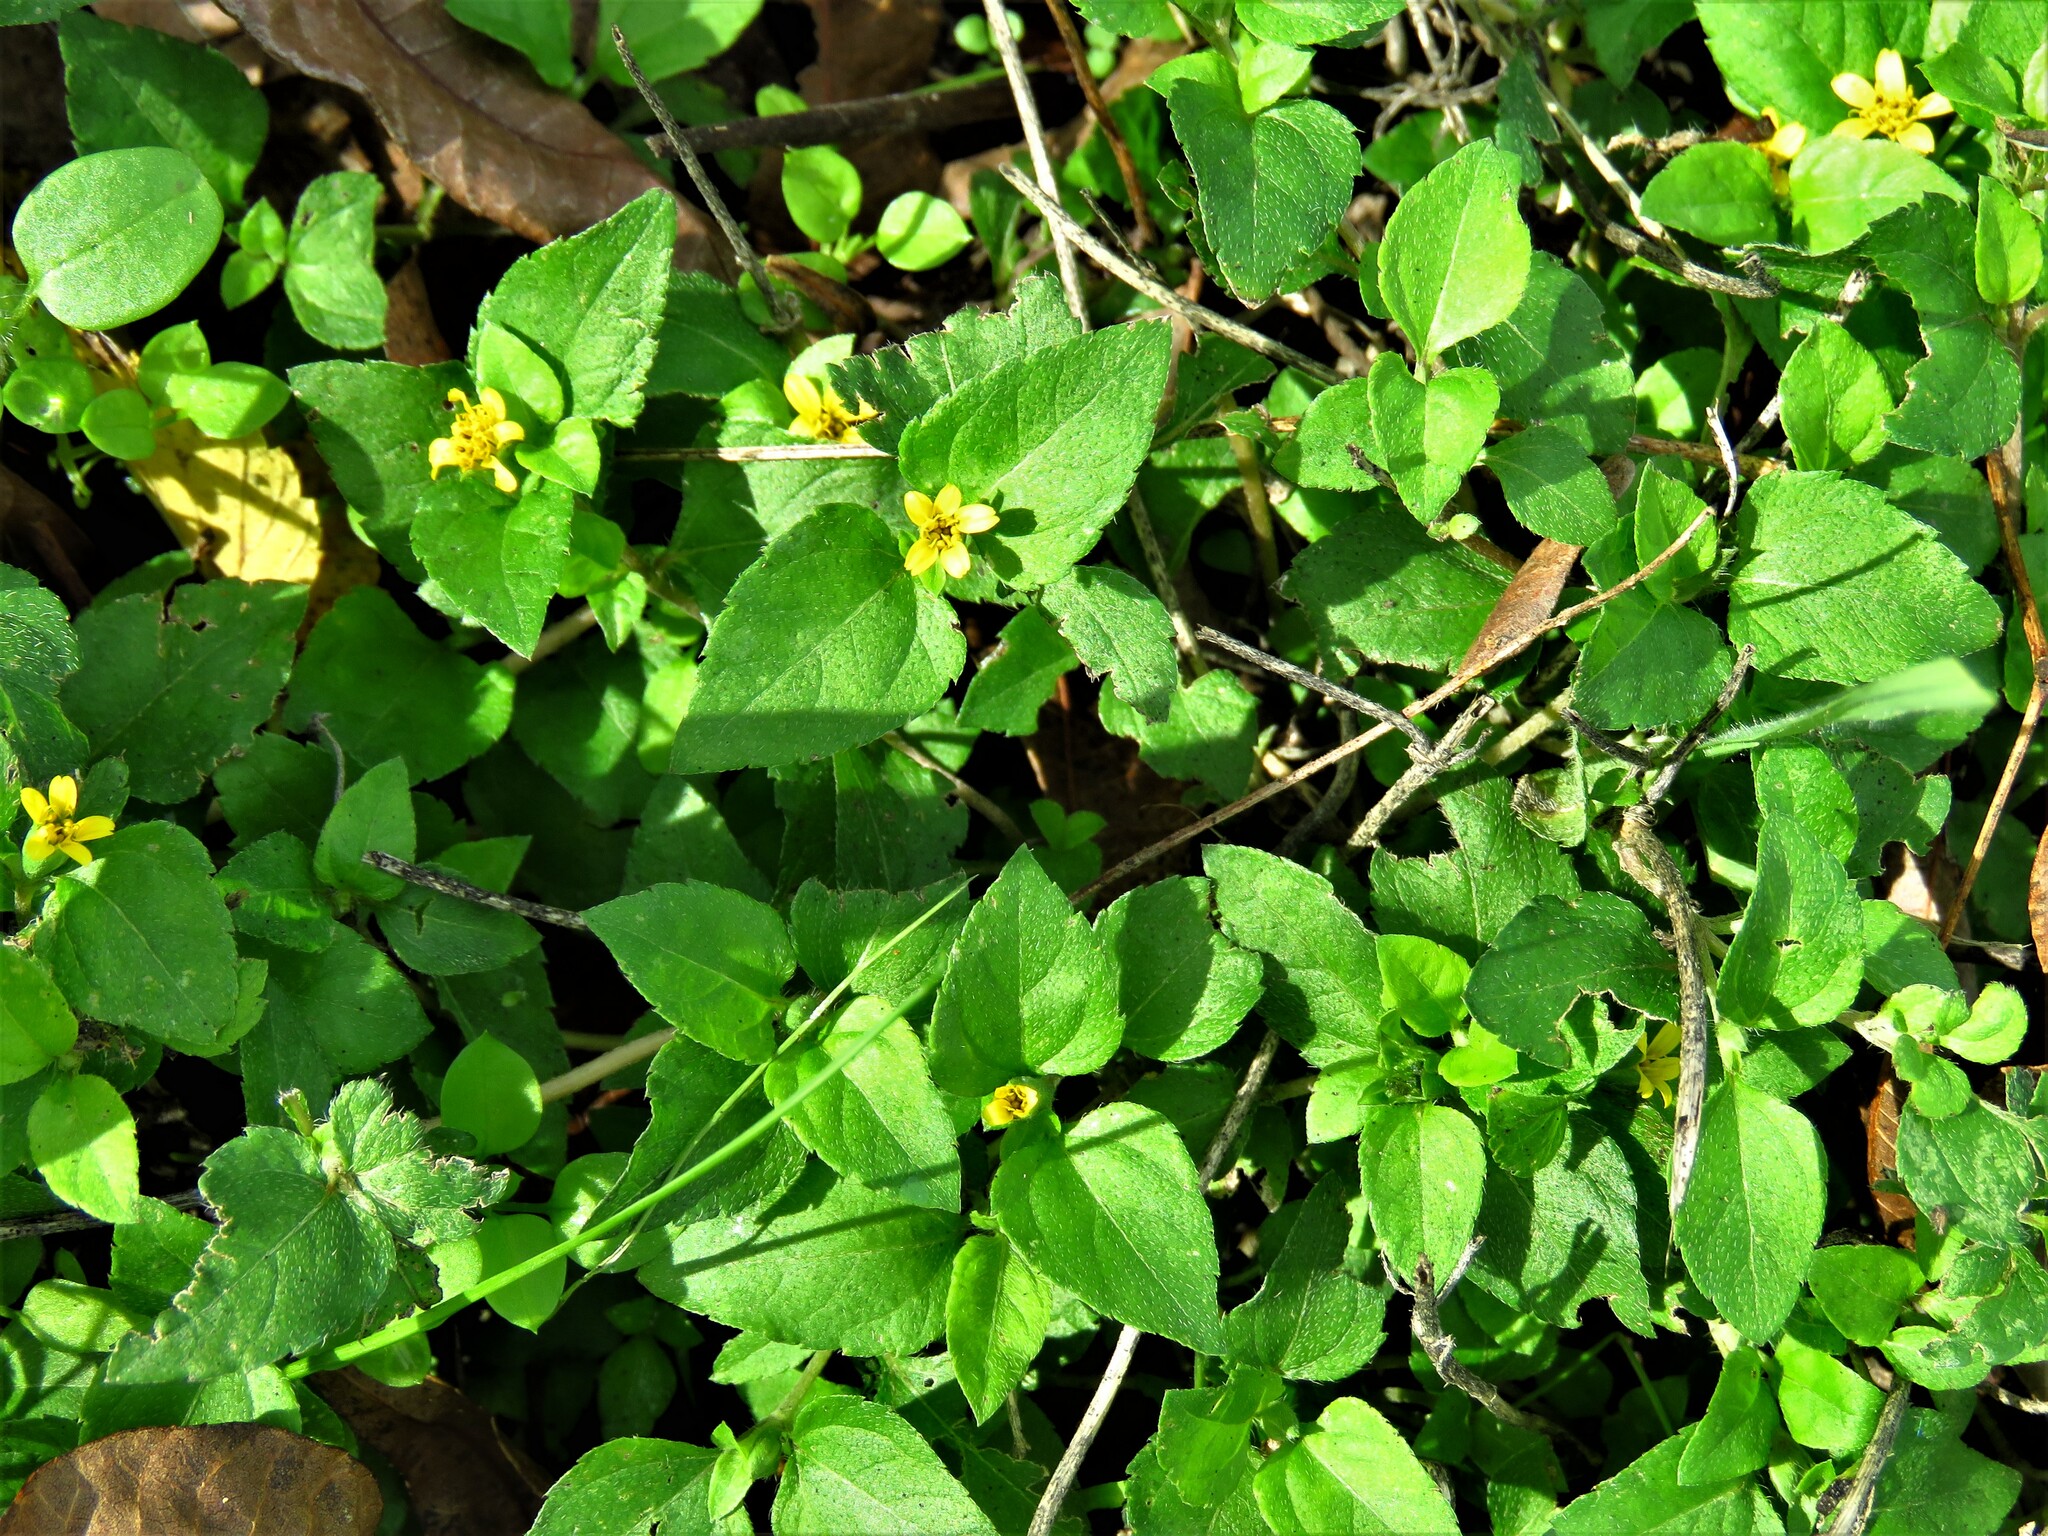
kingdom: Plantae
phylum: Tracheophyta
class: Magnoliopsida
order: Asterales
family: Asteraceae
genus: Calyptocarpus
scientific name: Calyptocarpus vialis
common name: Straggler daisy
